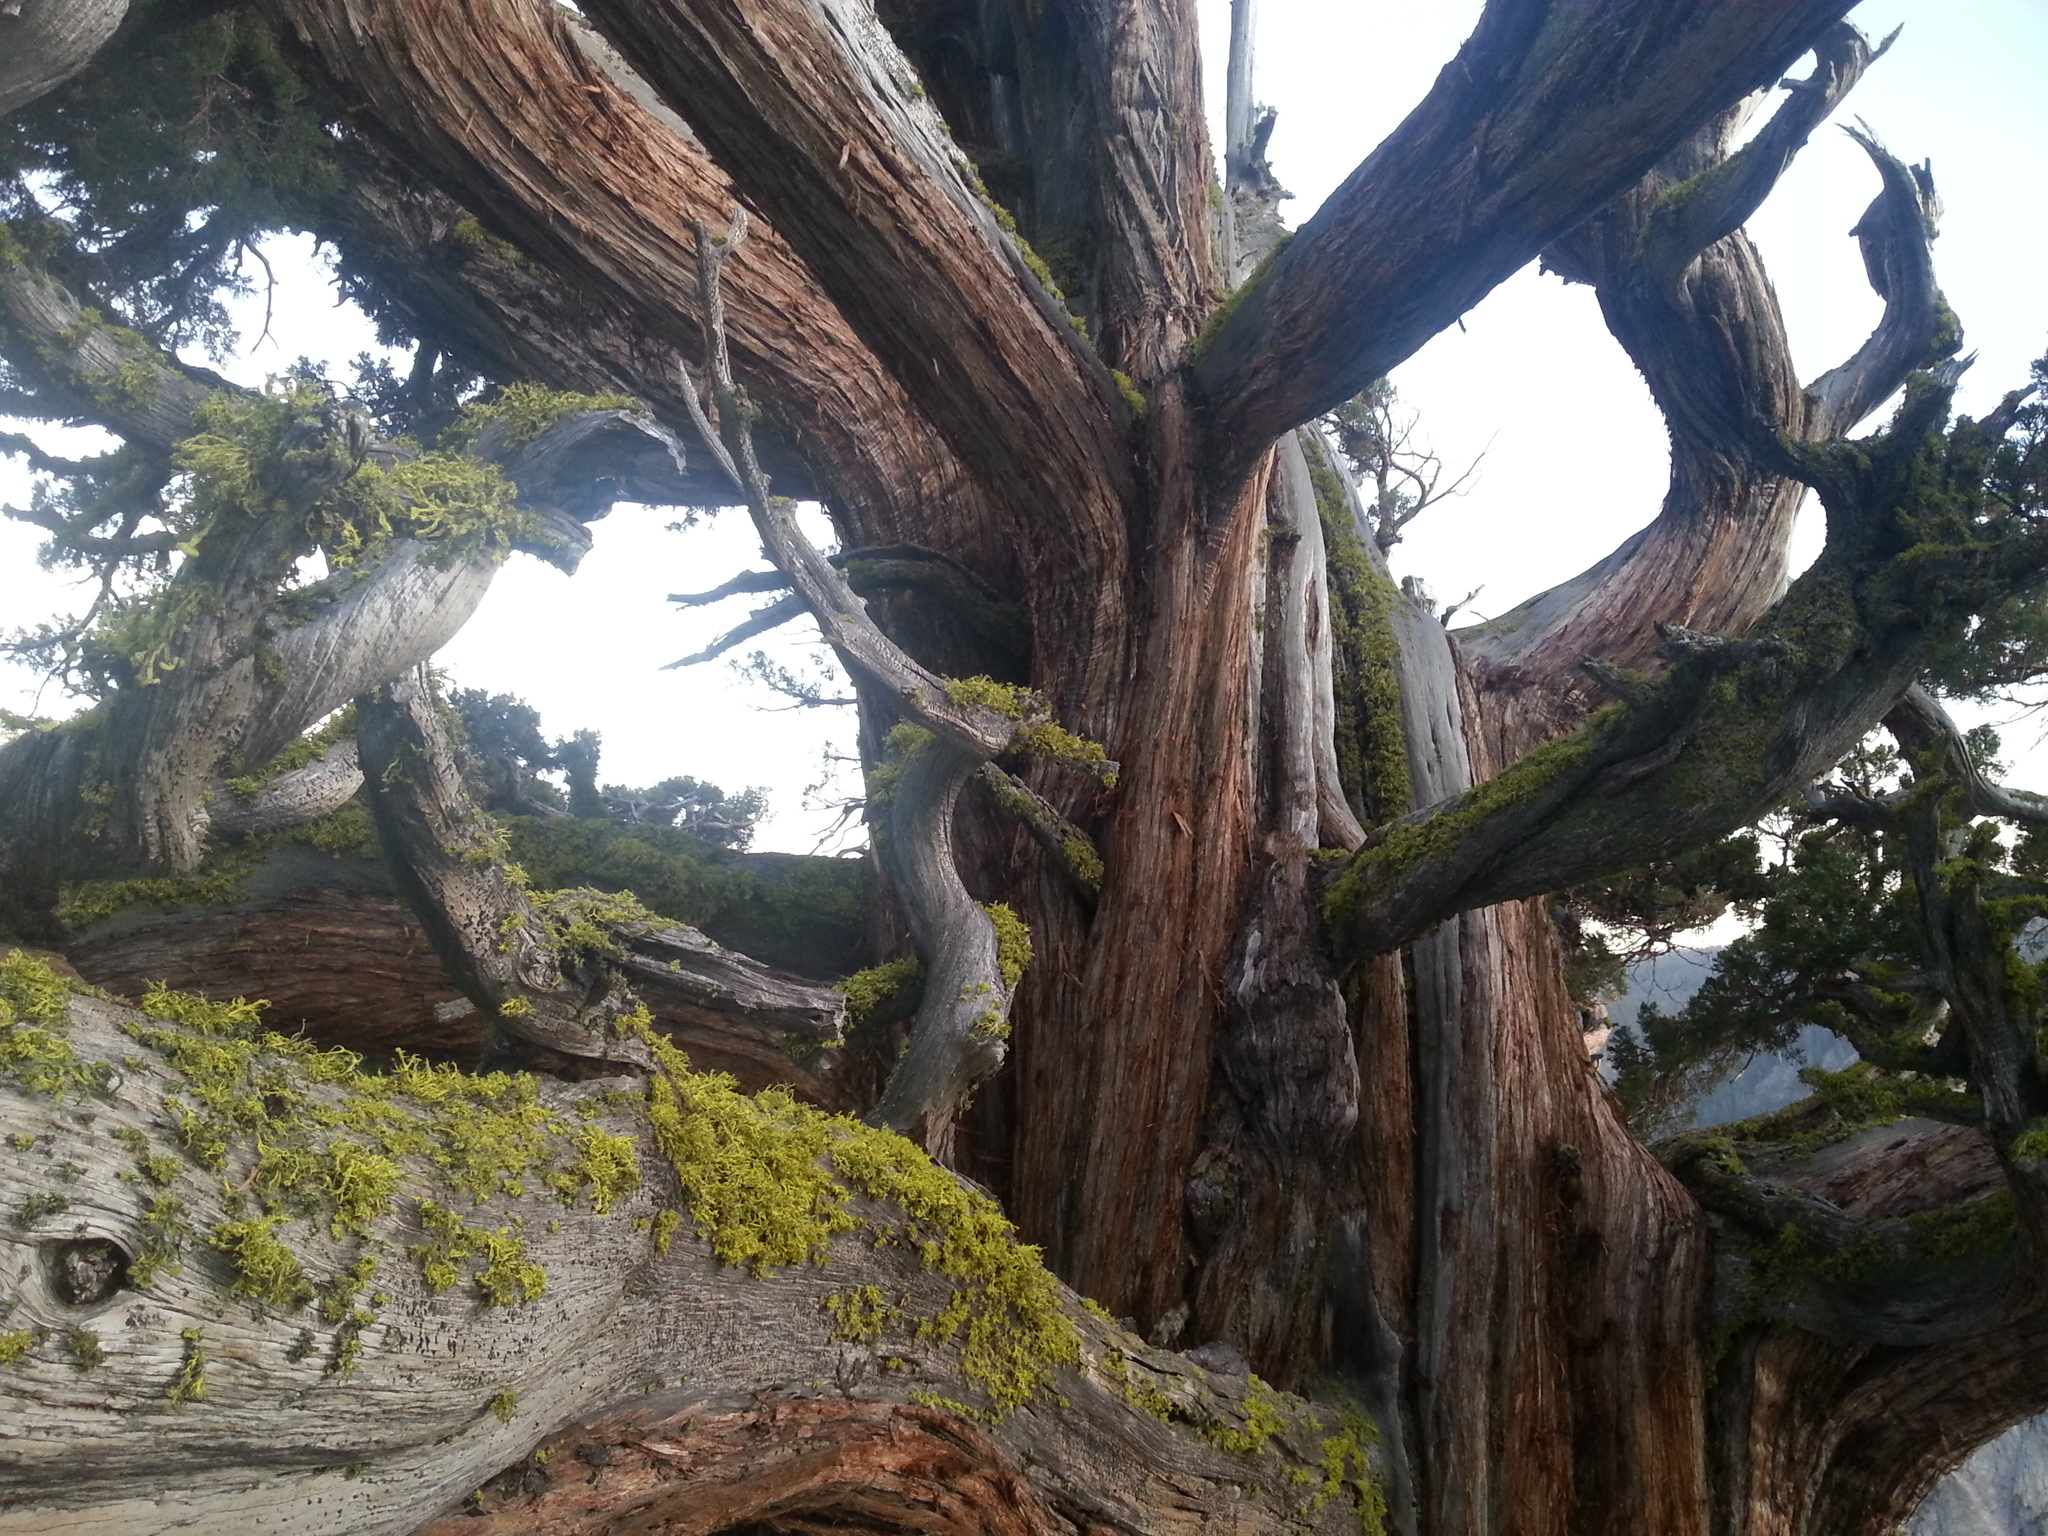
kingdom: Plantae
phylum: Tracheophyta
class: Pinopsida
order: Pinales
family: Cupressaceae
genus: Juniperus
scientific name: Juniperus occidentalis
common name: Western juniper
